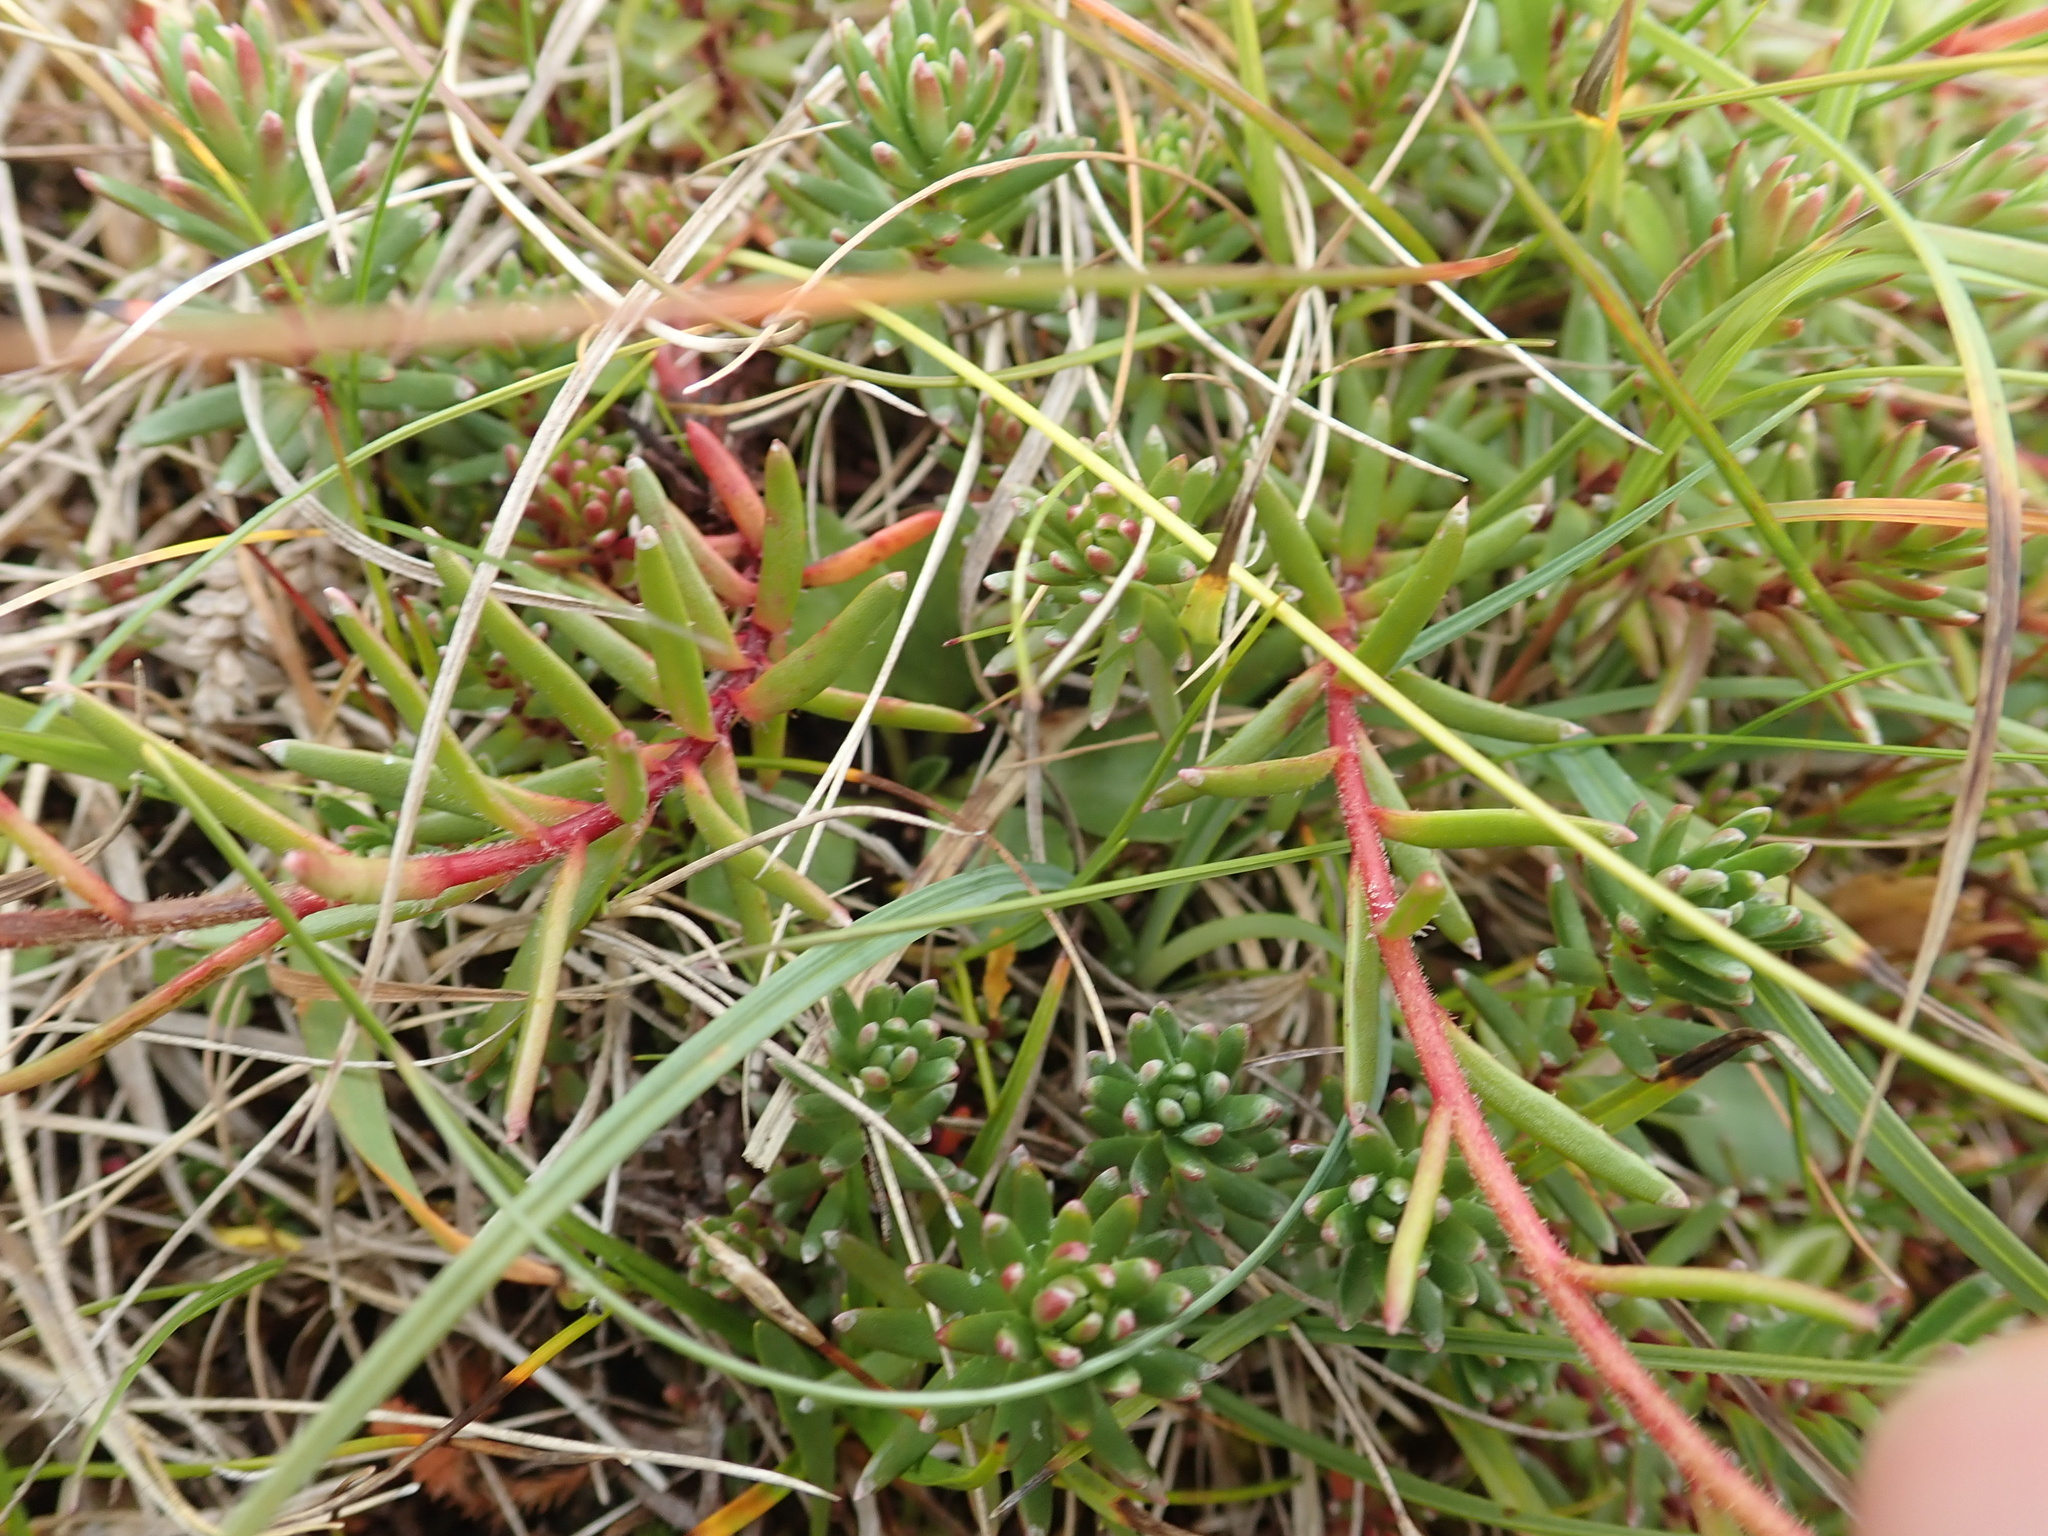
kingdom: Plantae
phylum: Tracheophyta
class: Magnoliopsida
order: Saxifragales
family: Saxifragaceae
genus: Saxifraga
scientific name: Saxifraga aizoides
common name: Yellow mountain saxifrage
